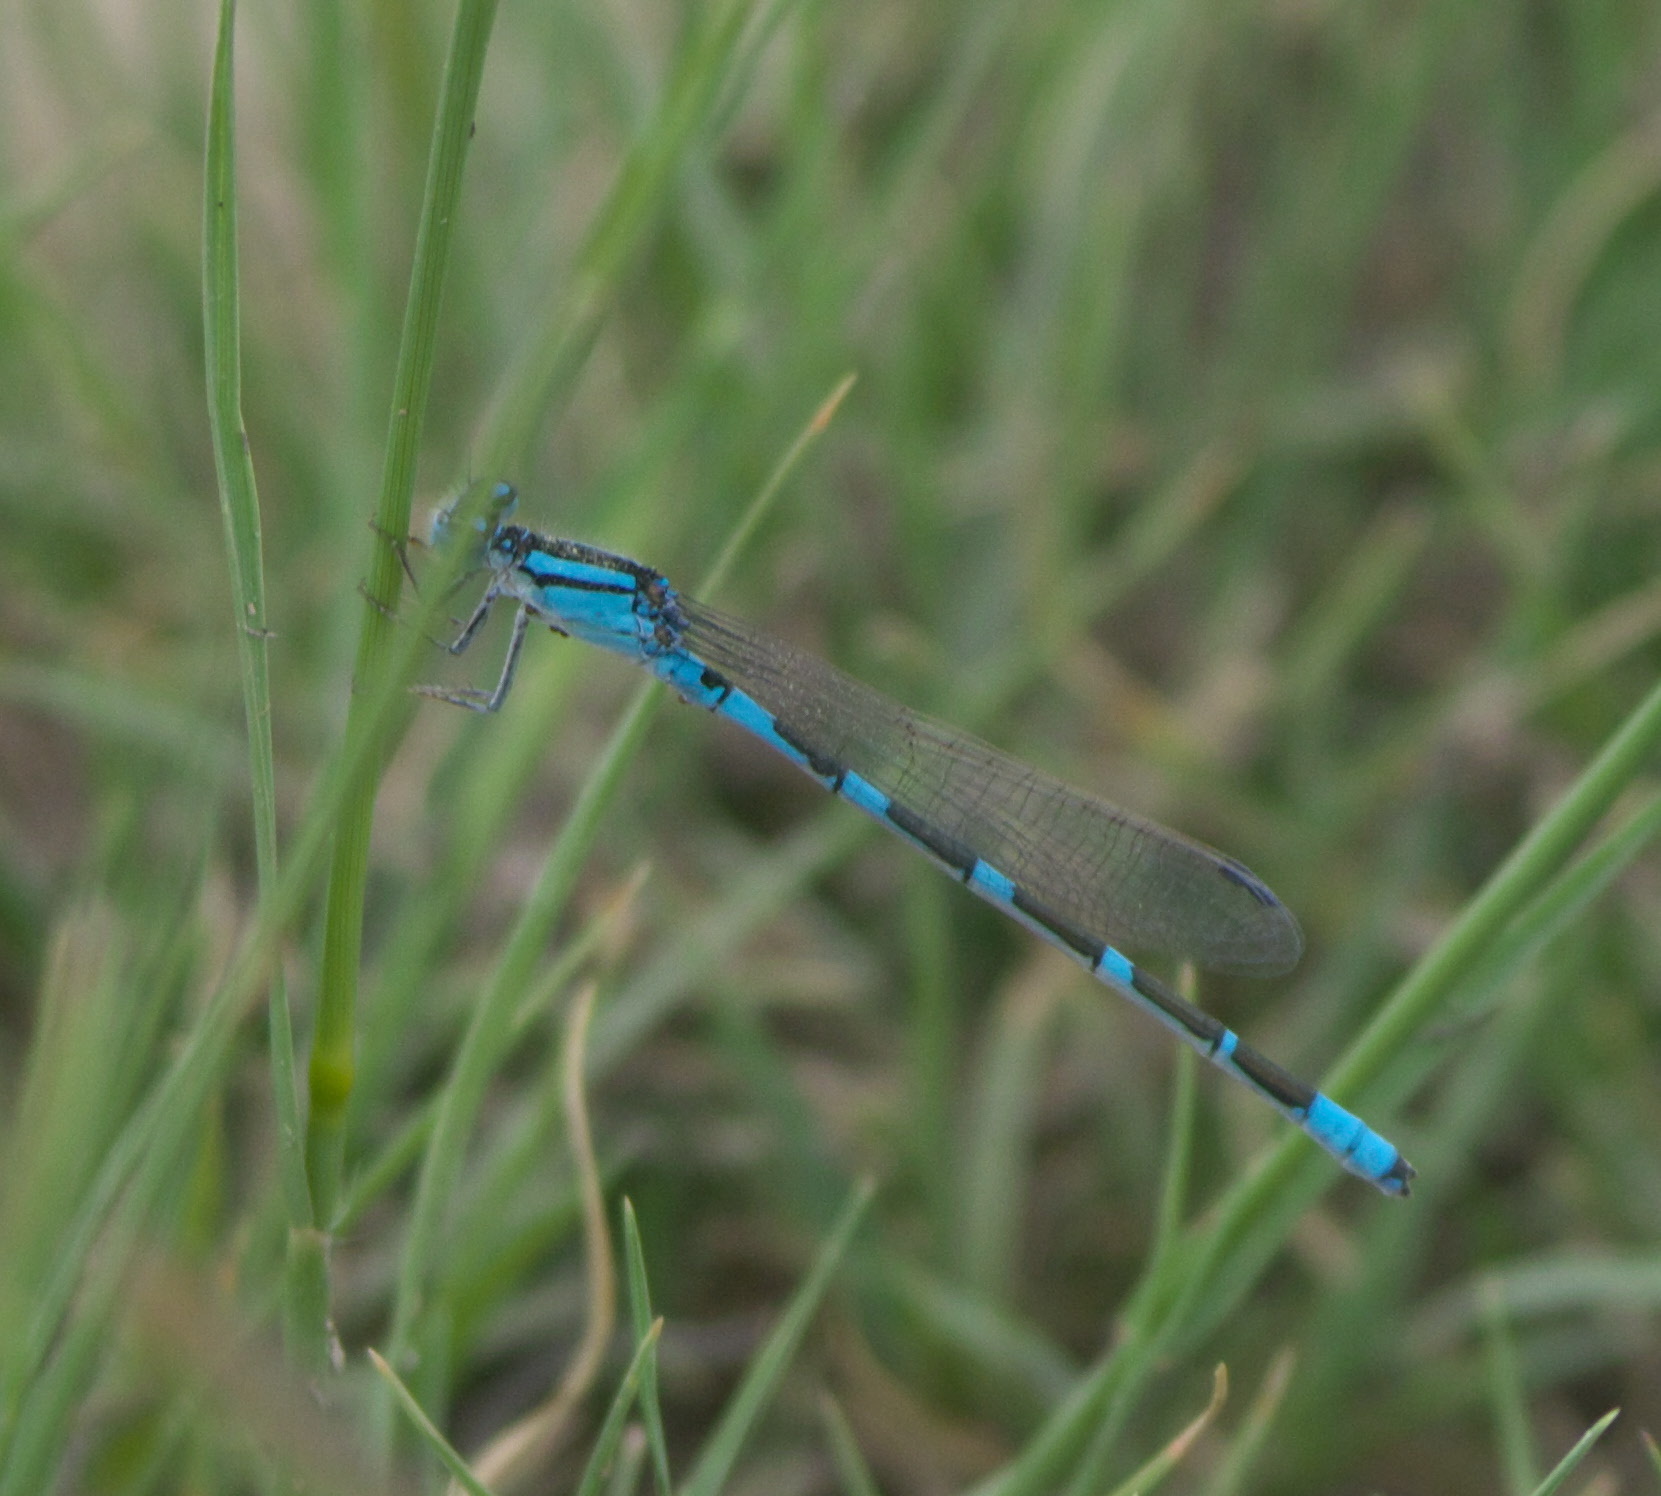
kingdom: Animalia
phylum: Arthropoda
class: Insecta
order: Odonata
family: Coenagrionidae
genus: Enallagma
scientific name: Enallagma carunculatum
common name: Tule bluet
